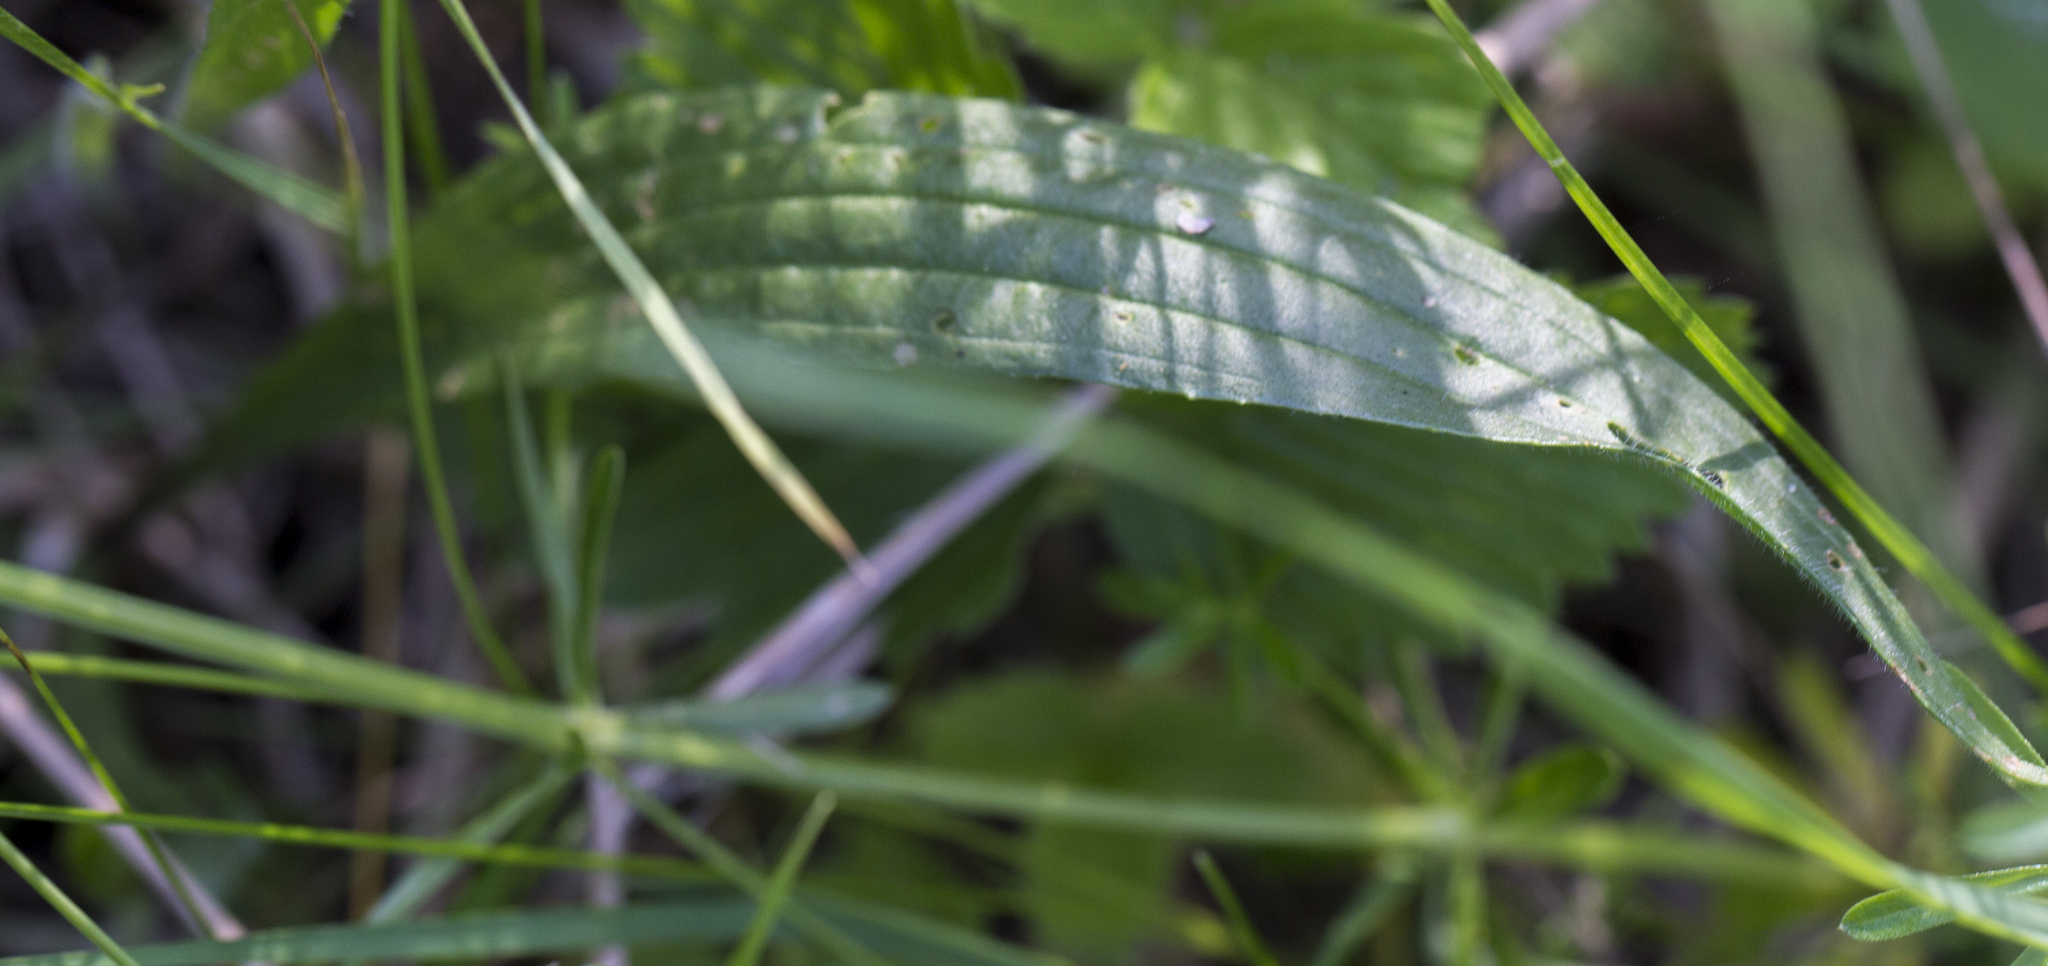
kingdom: Plantae
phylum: Tracheophyta
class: Magnoliopsida
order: Lamiales
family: Plantaginaceae
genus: Plantago
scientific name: Plantago lanceolata
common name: Ribwort plantain
